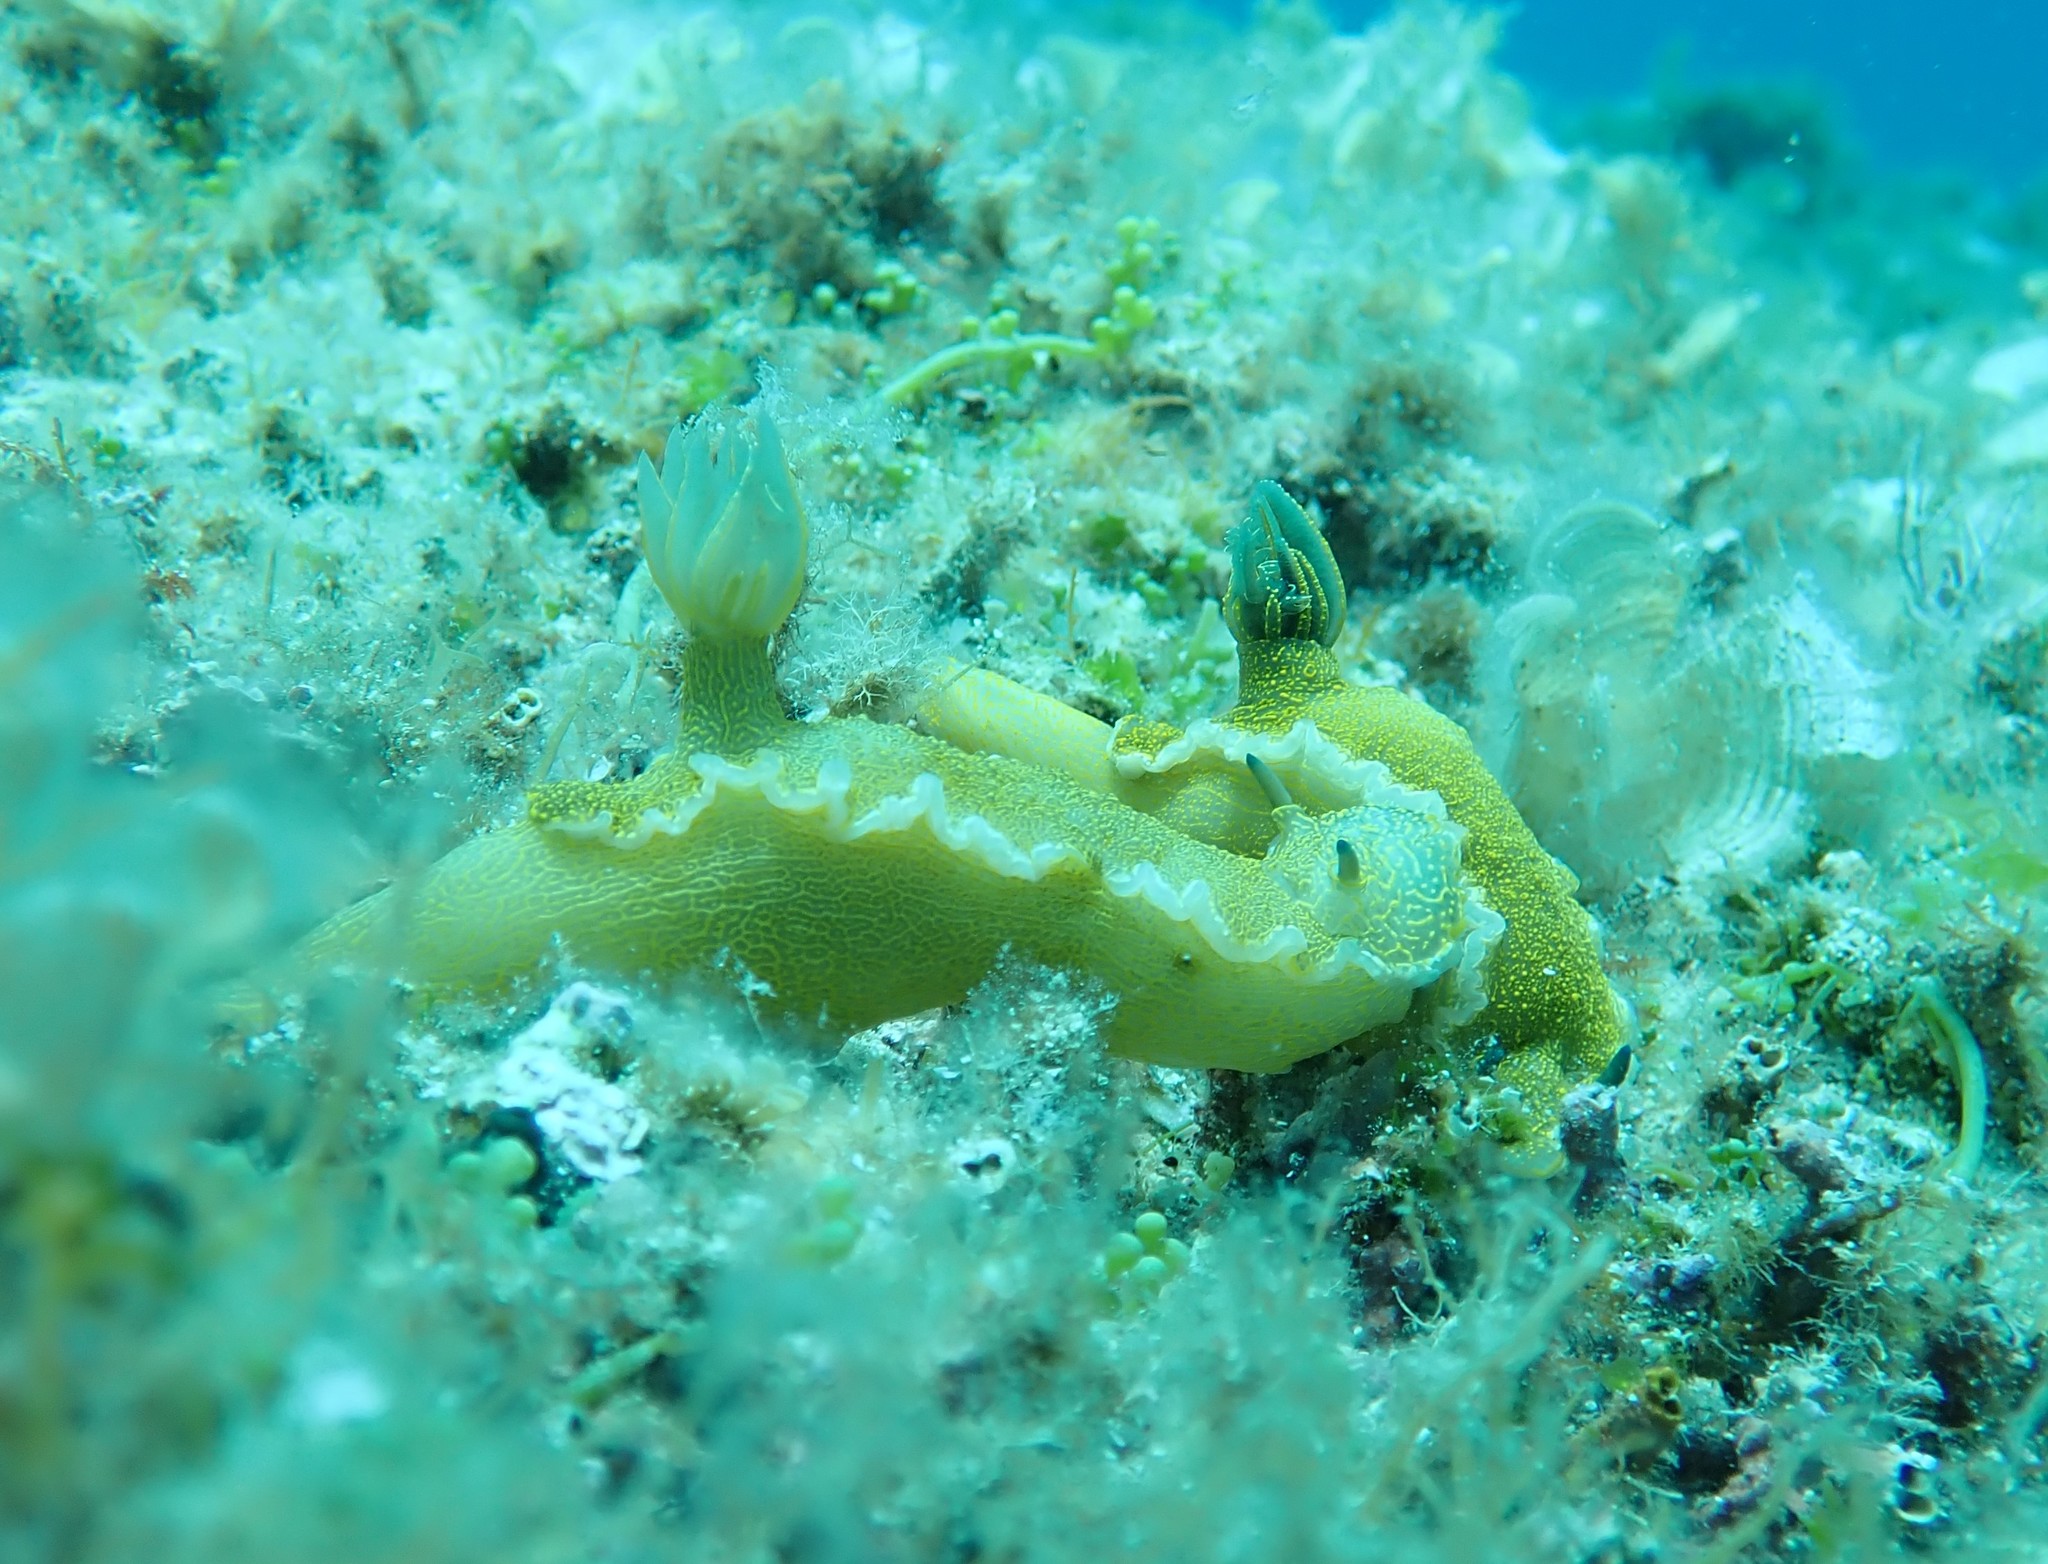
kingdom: Animalia
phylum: Mollusca
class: Gastropoda
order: Nudibranchia
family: Chromodorididae
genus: Felimare
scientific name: Felimare picta
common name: Giant doris
